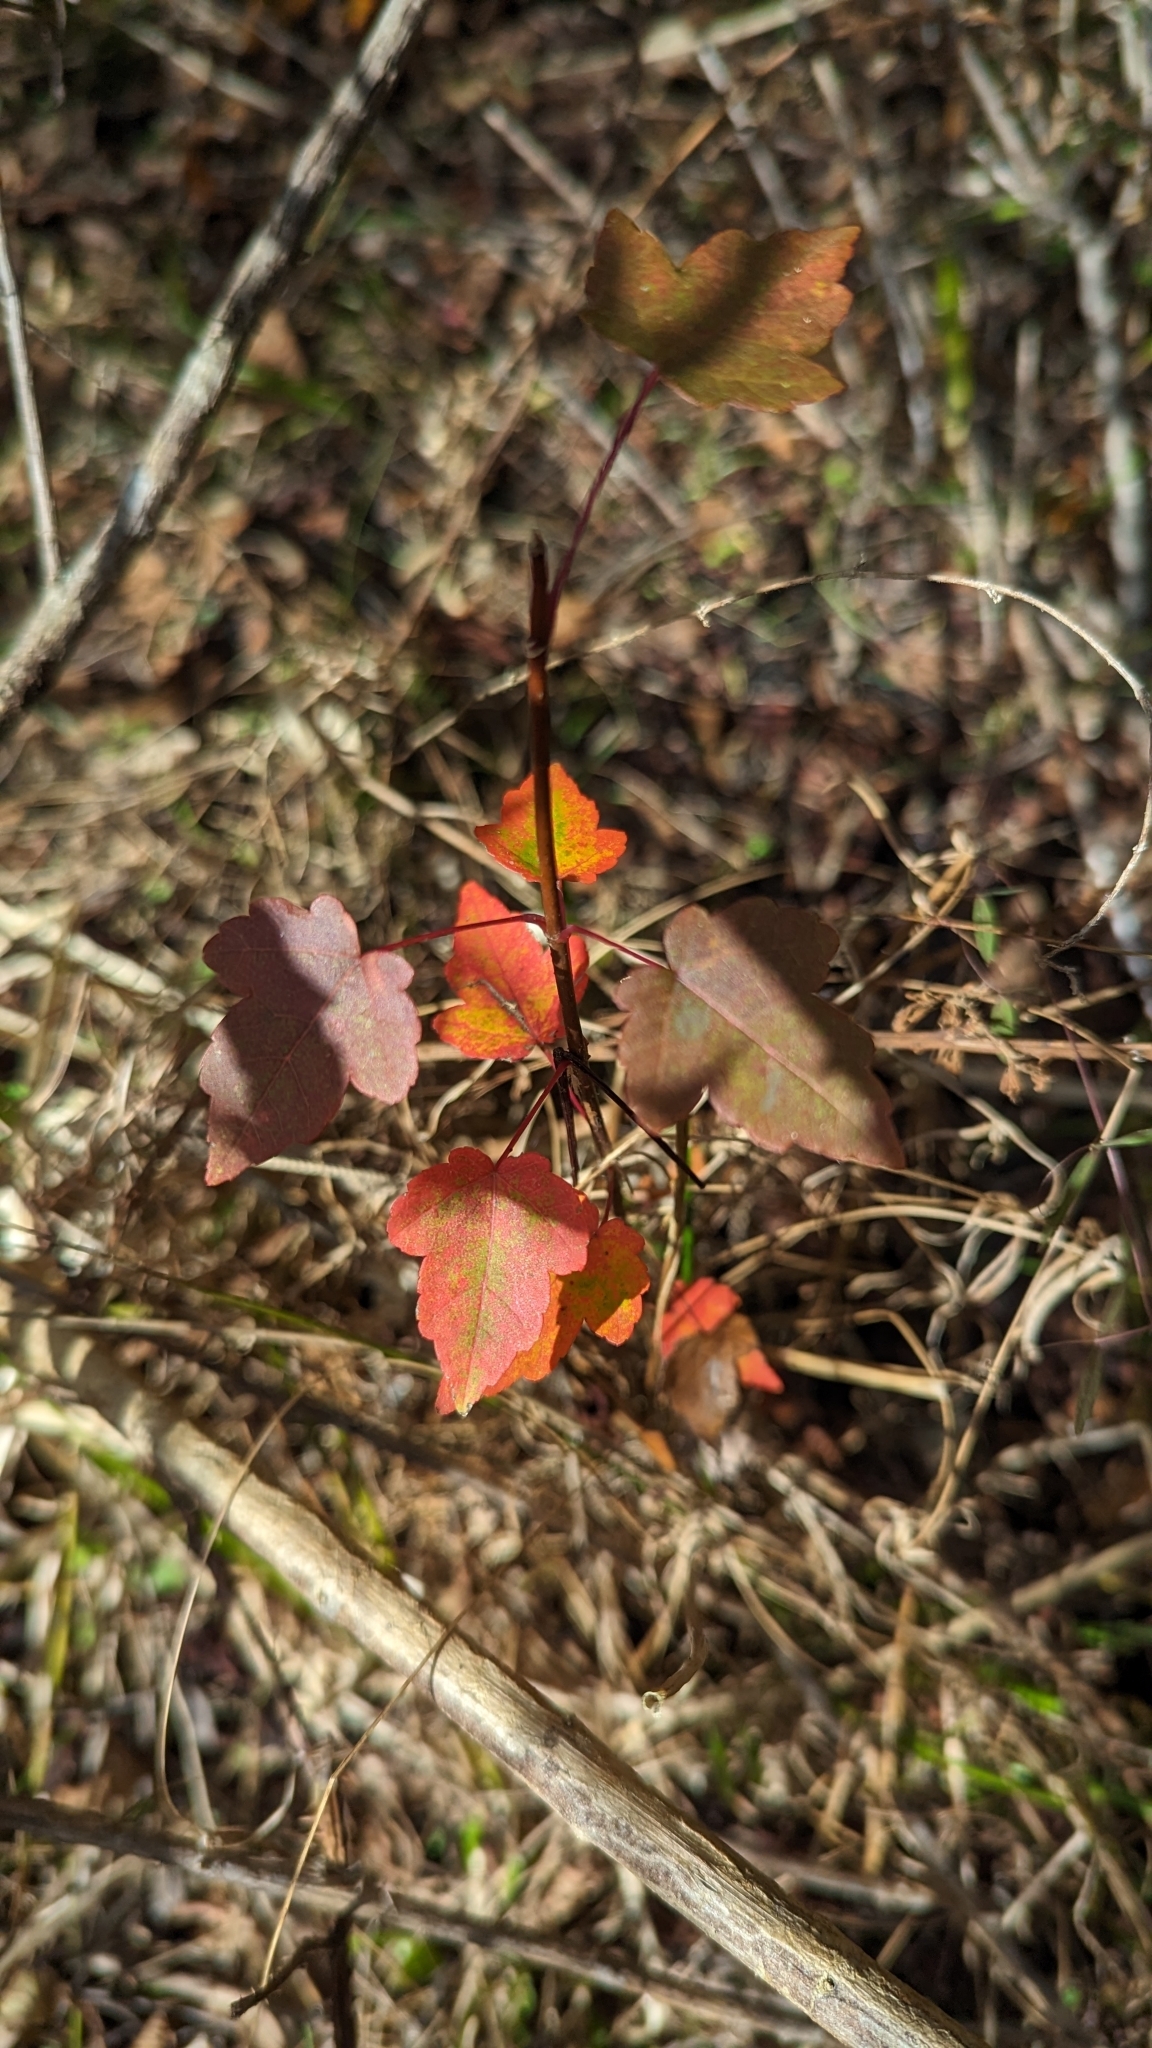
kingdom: Plantae
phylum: Tracheophyta
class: Magnoliopsida
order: Sapindales
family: Sapindaceae
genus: Acer
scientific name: Acer rubrum
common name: Red maple
